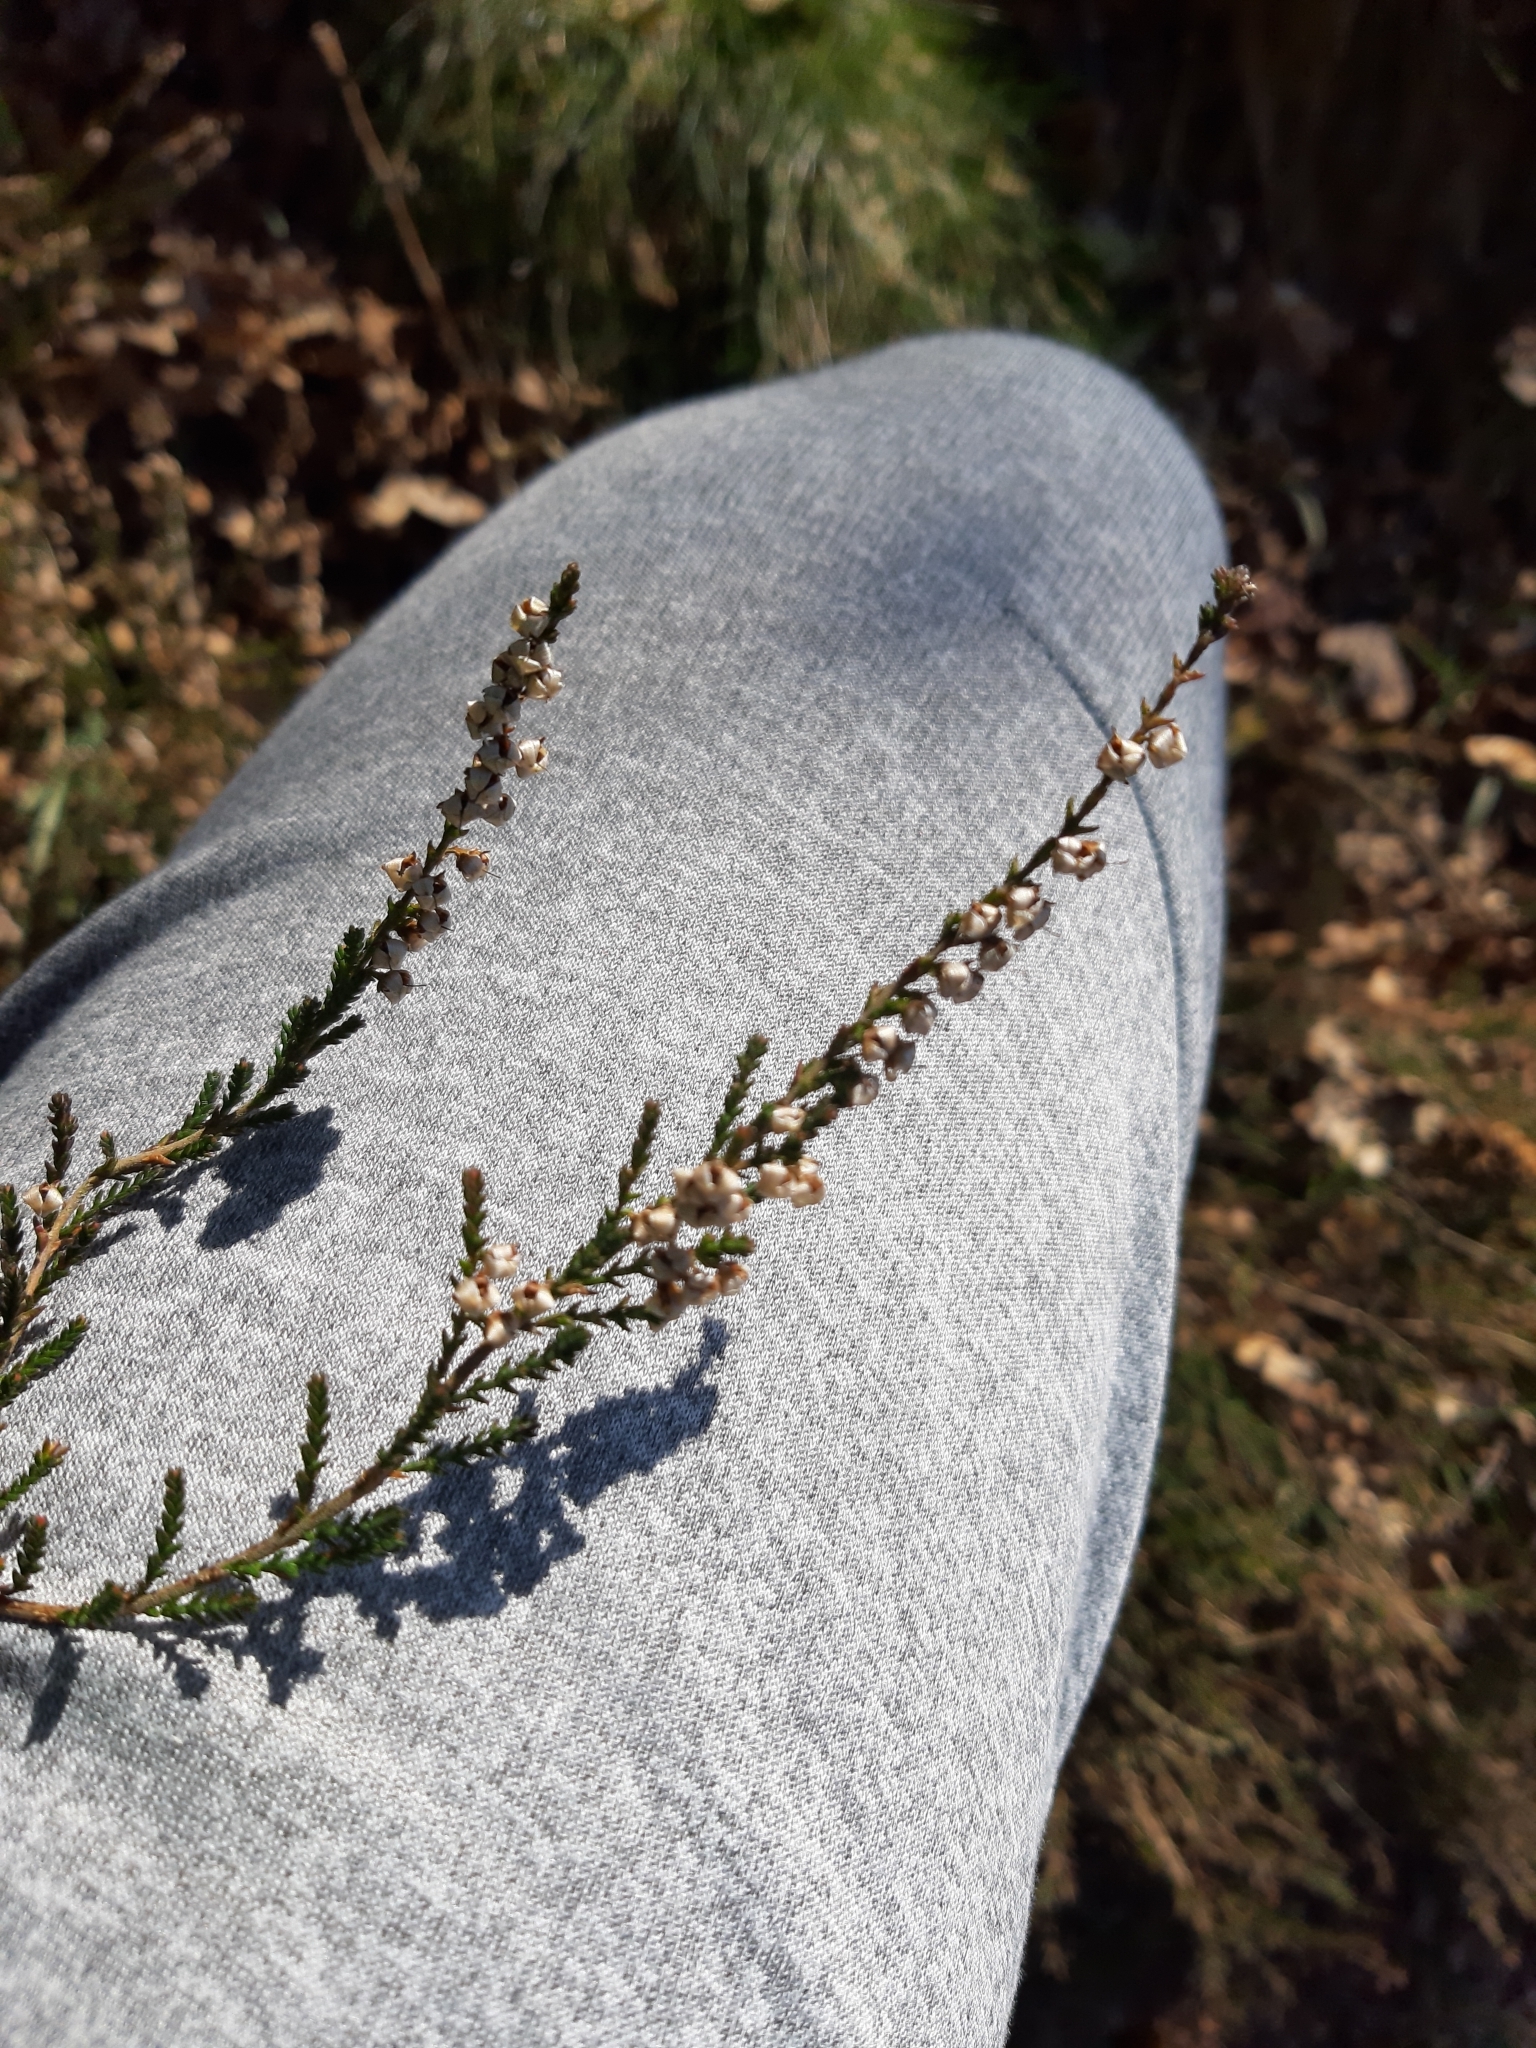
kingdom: Plantae
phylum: Tracheophyta
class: Magnoliopsida
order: Ericales
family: Ericaceae
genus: Calluna
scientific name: Calluna vulgaris
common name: Heather
